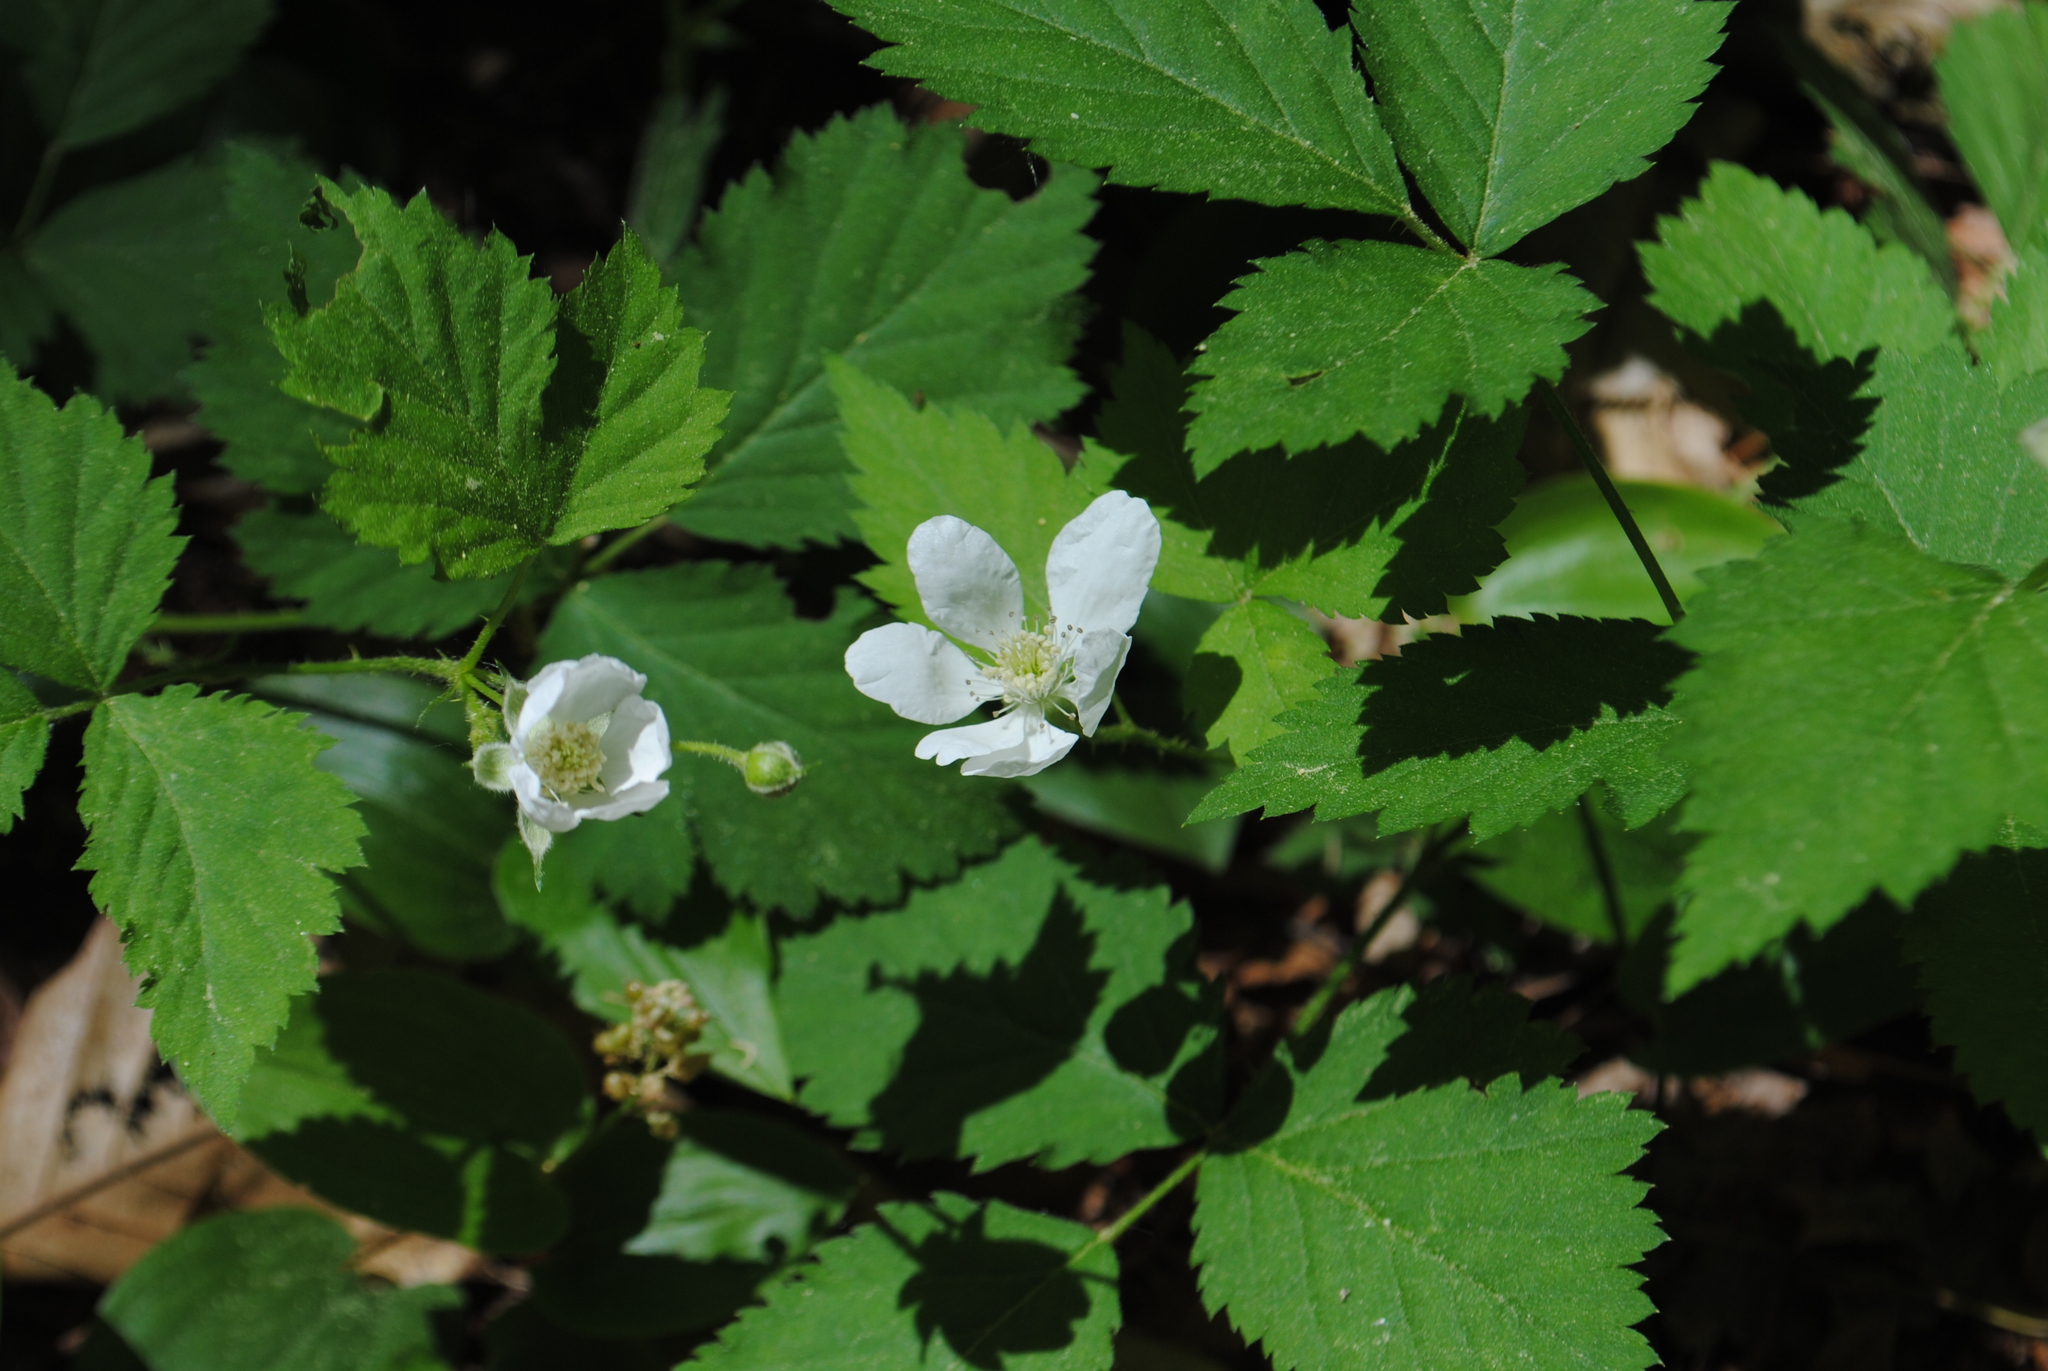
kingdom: Plantae
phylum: Tracheophyta
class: Magnoliopsida
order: Rosales
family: Rosaceae
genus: Rubus
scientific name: Rubus flagellaris
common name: American dewberry
